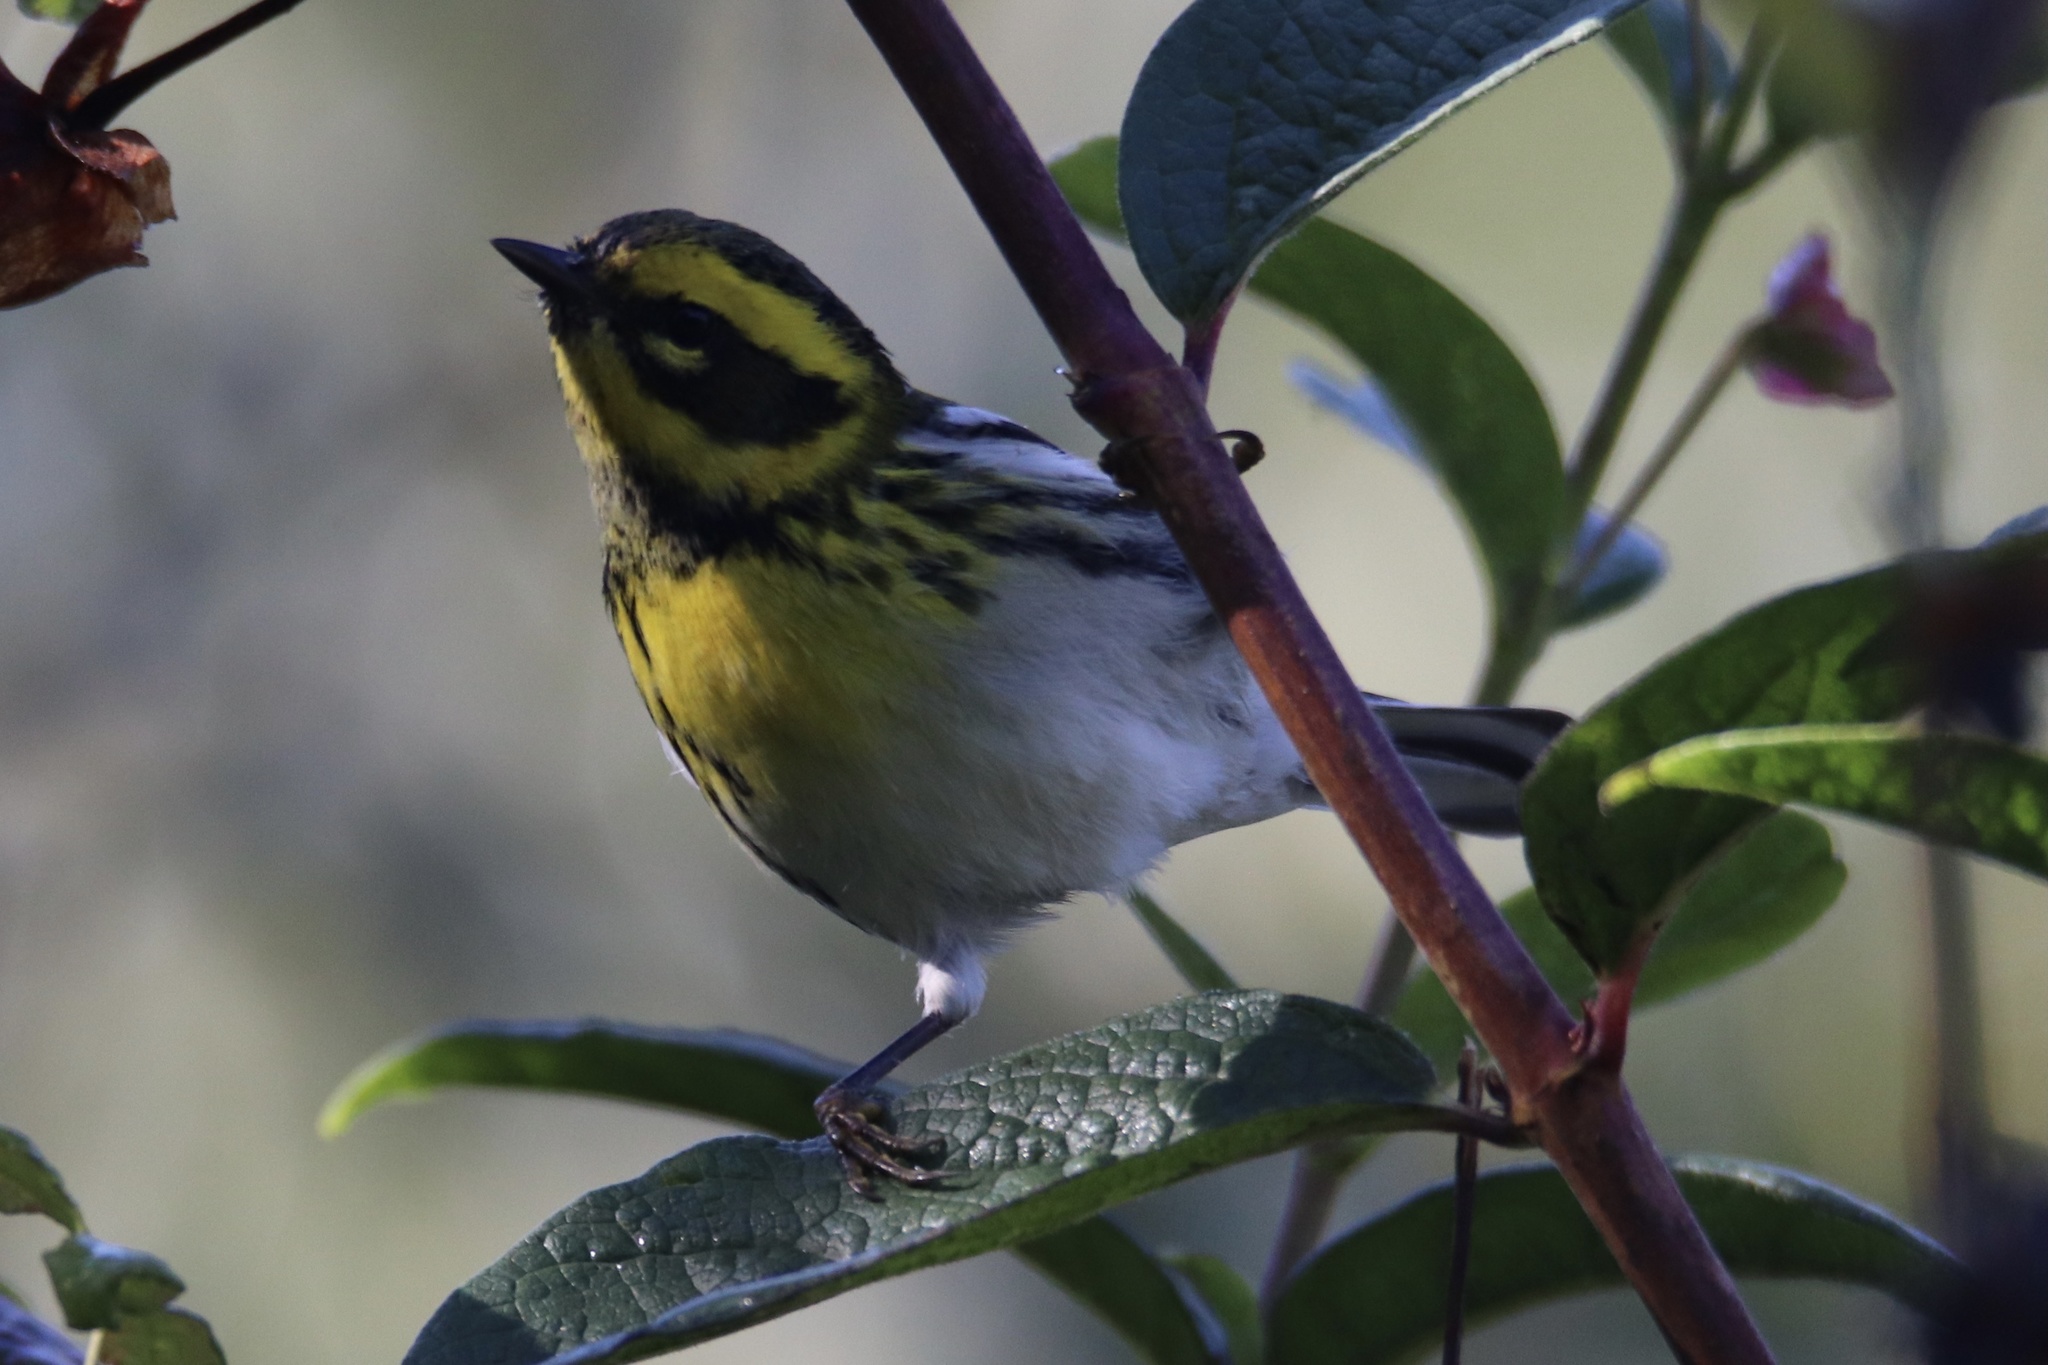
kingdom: Animalia
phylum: Chordata
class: Aves
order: Passeriformes
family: Parulidae
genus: Setophaga
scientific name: Setophaga townsendi
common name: Townsend's warbler
